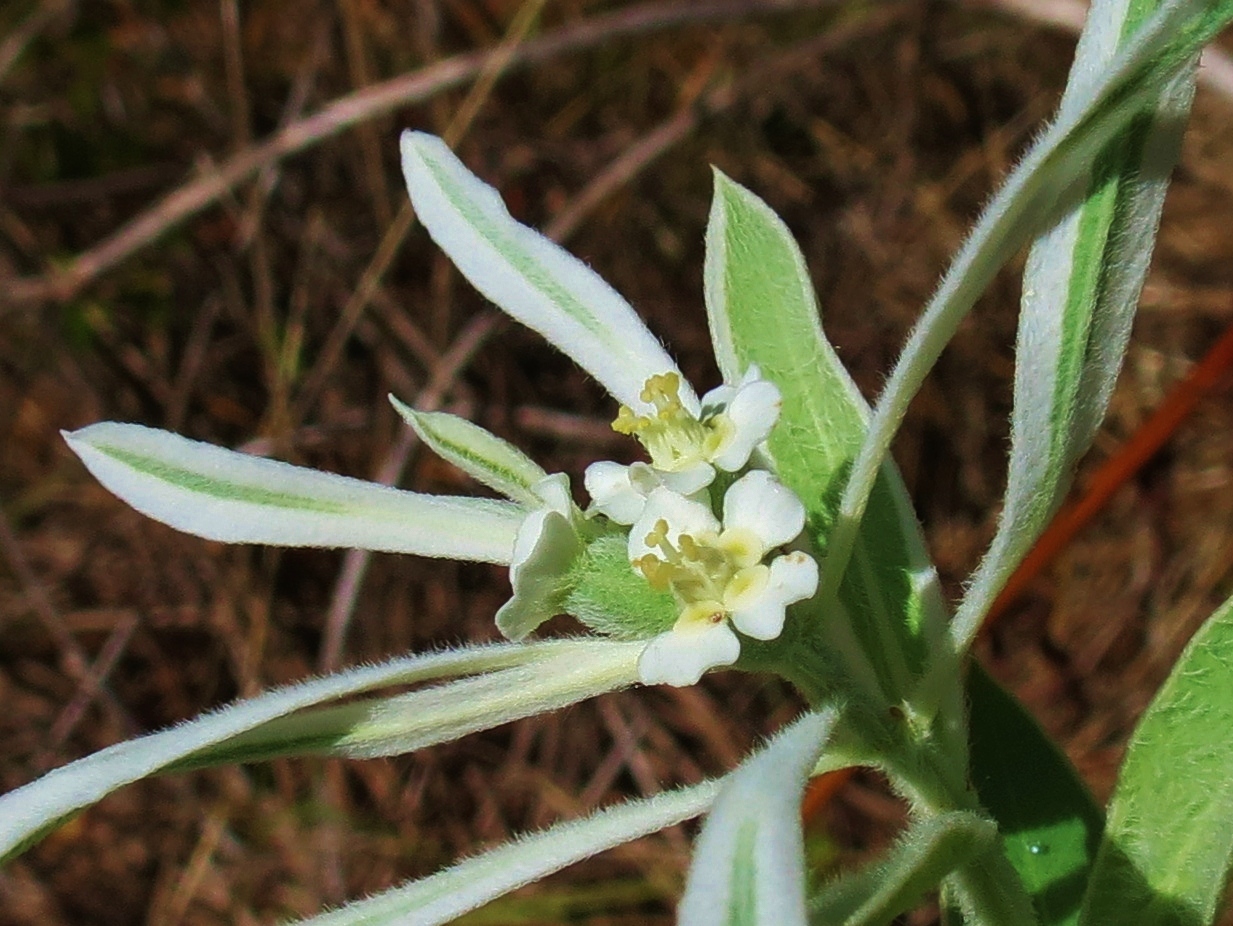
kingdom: Plantae
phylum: Tracheophyta
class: Magnoliopsida
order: Malpighiales
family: Euphorbiaceae
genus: Euphorbia
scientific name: Euphorbia bicolor
